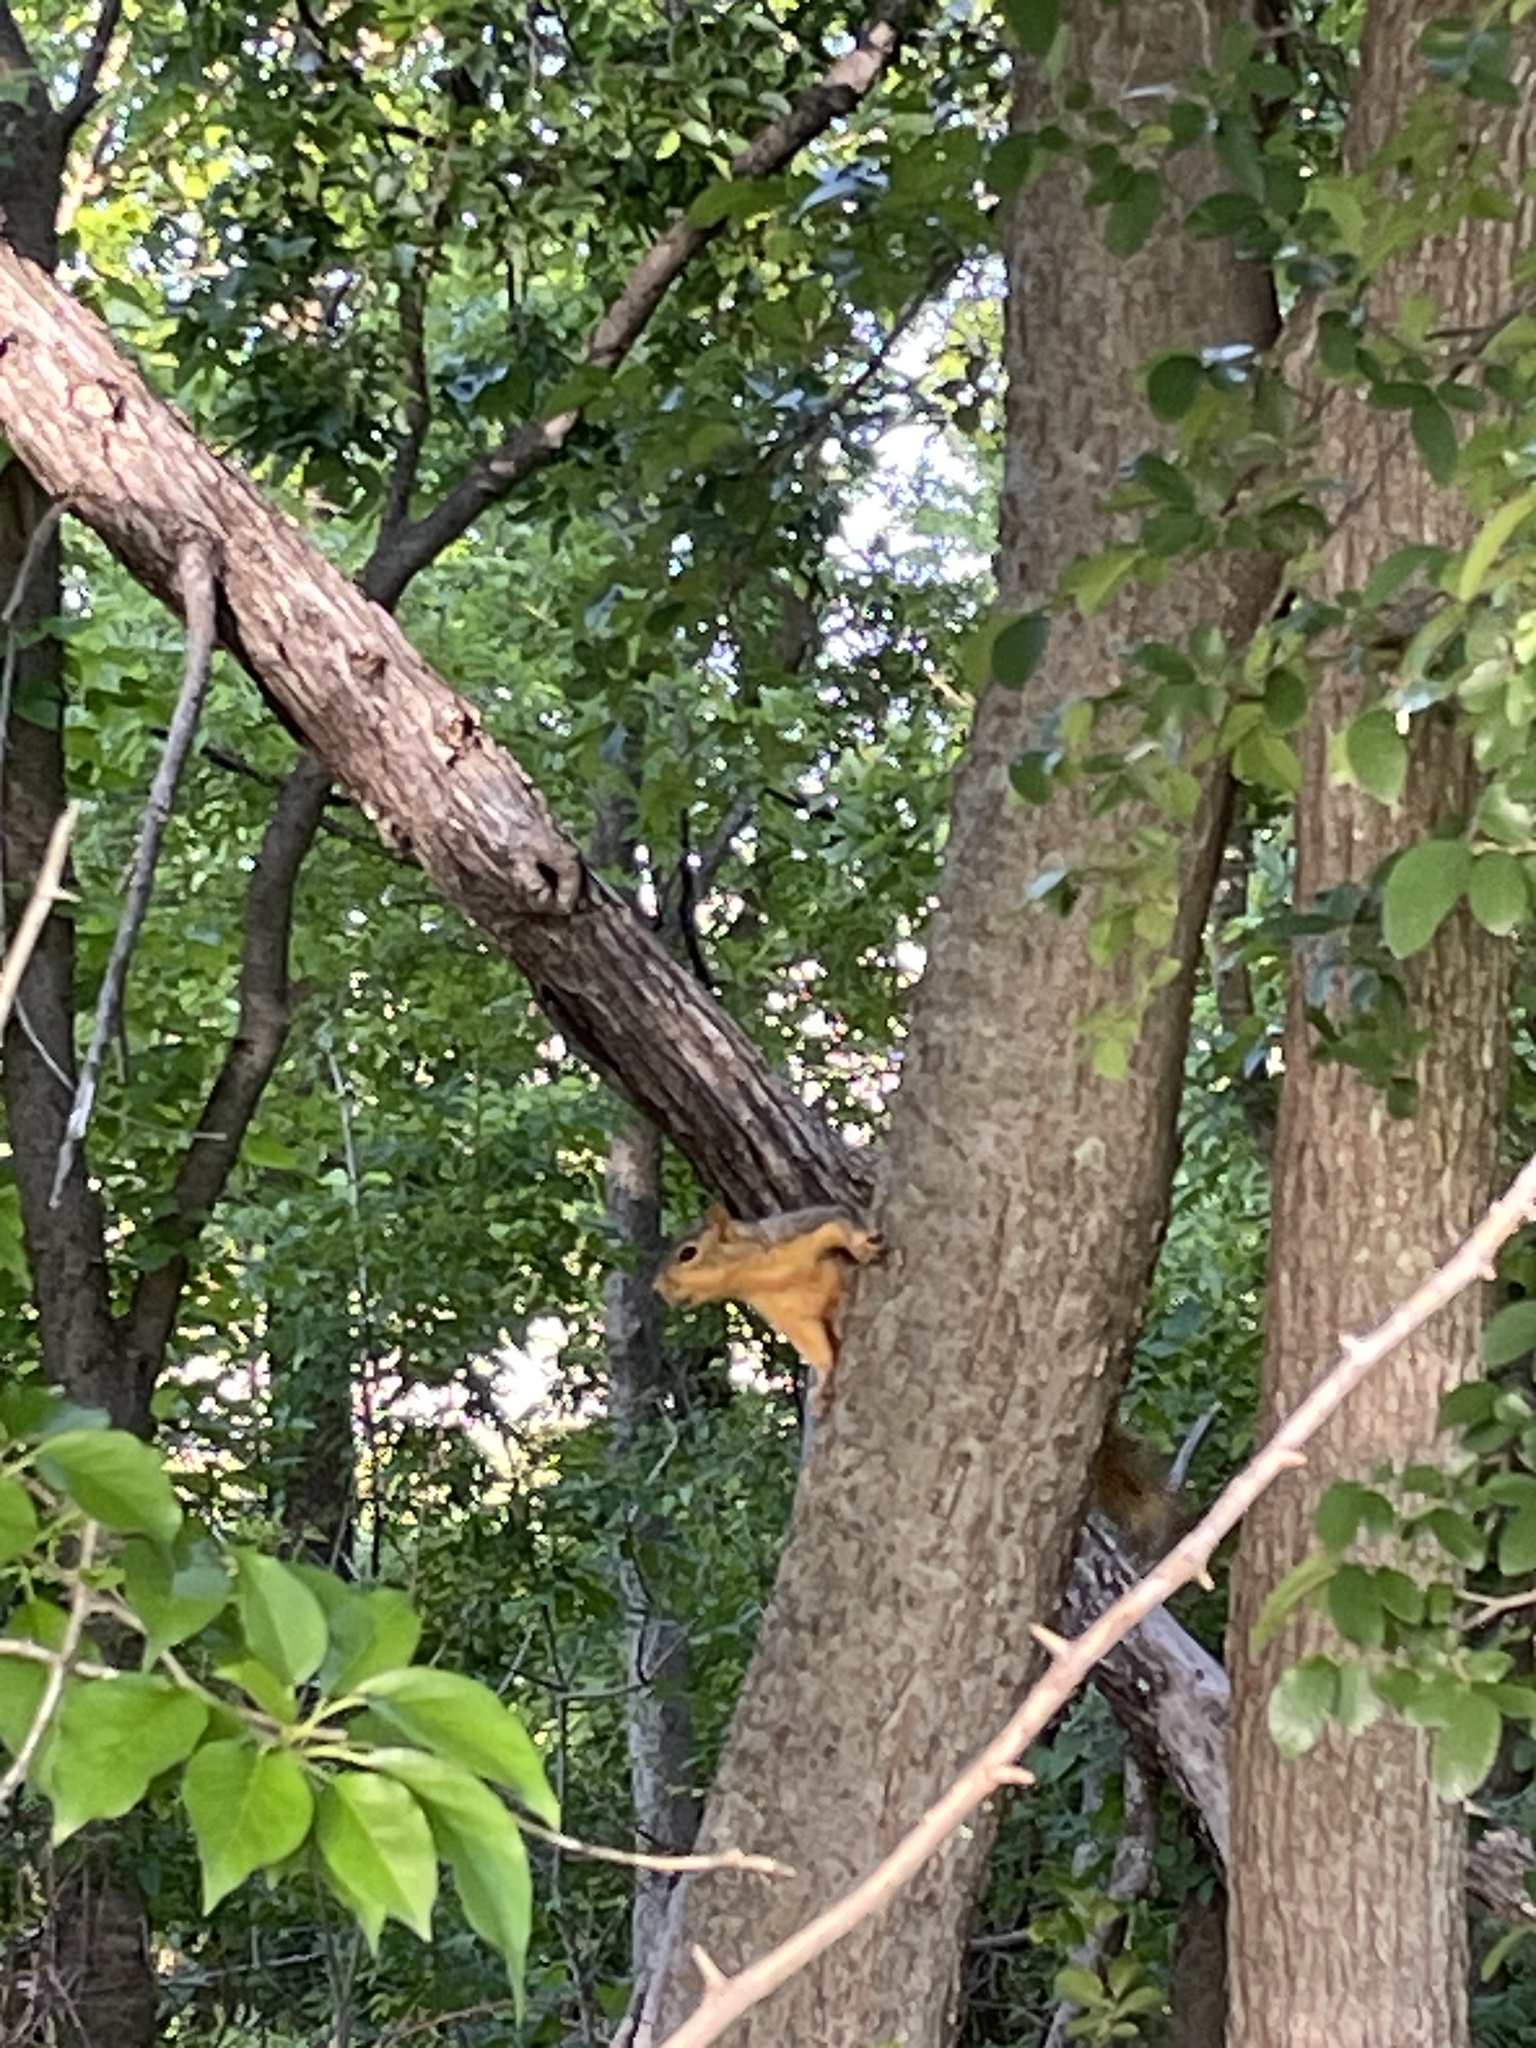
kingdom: Animalia
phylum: Chordata
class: Mammalia
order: Rodentia
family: Sciuridae
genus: Sciurus
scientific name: Sciurus niger
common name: Fox squirrel
